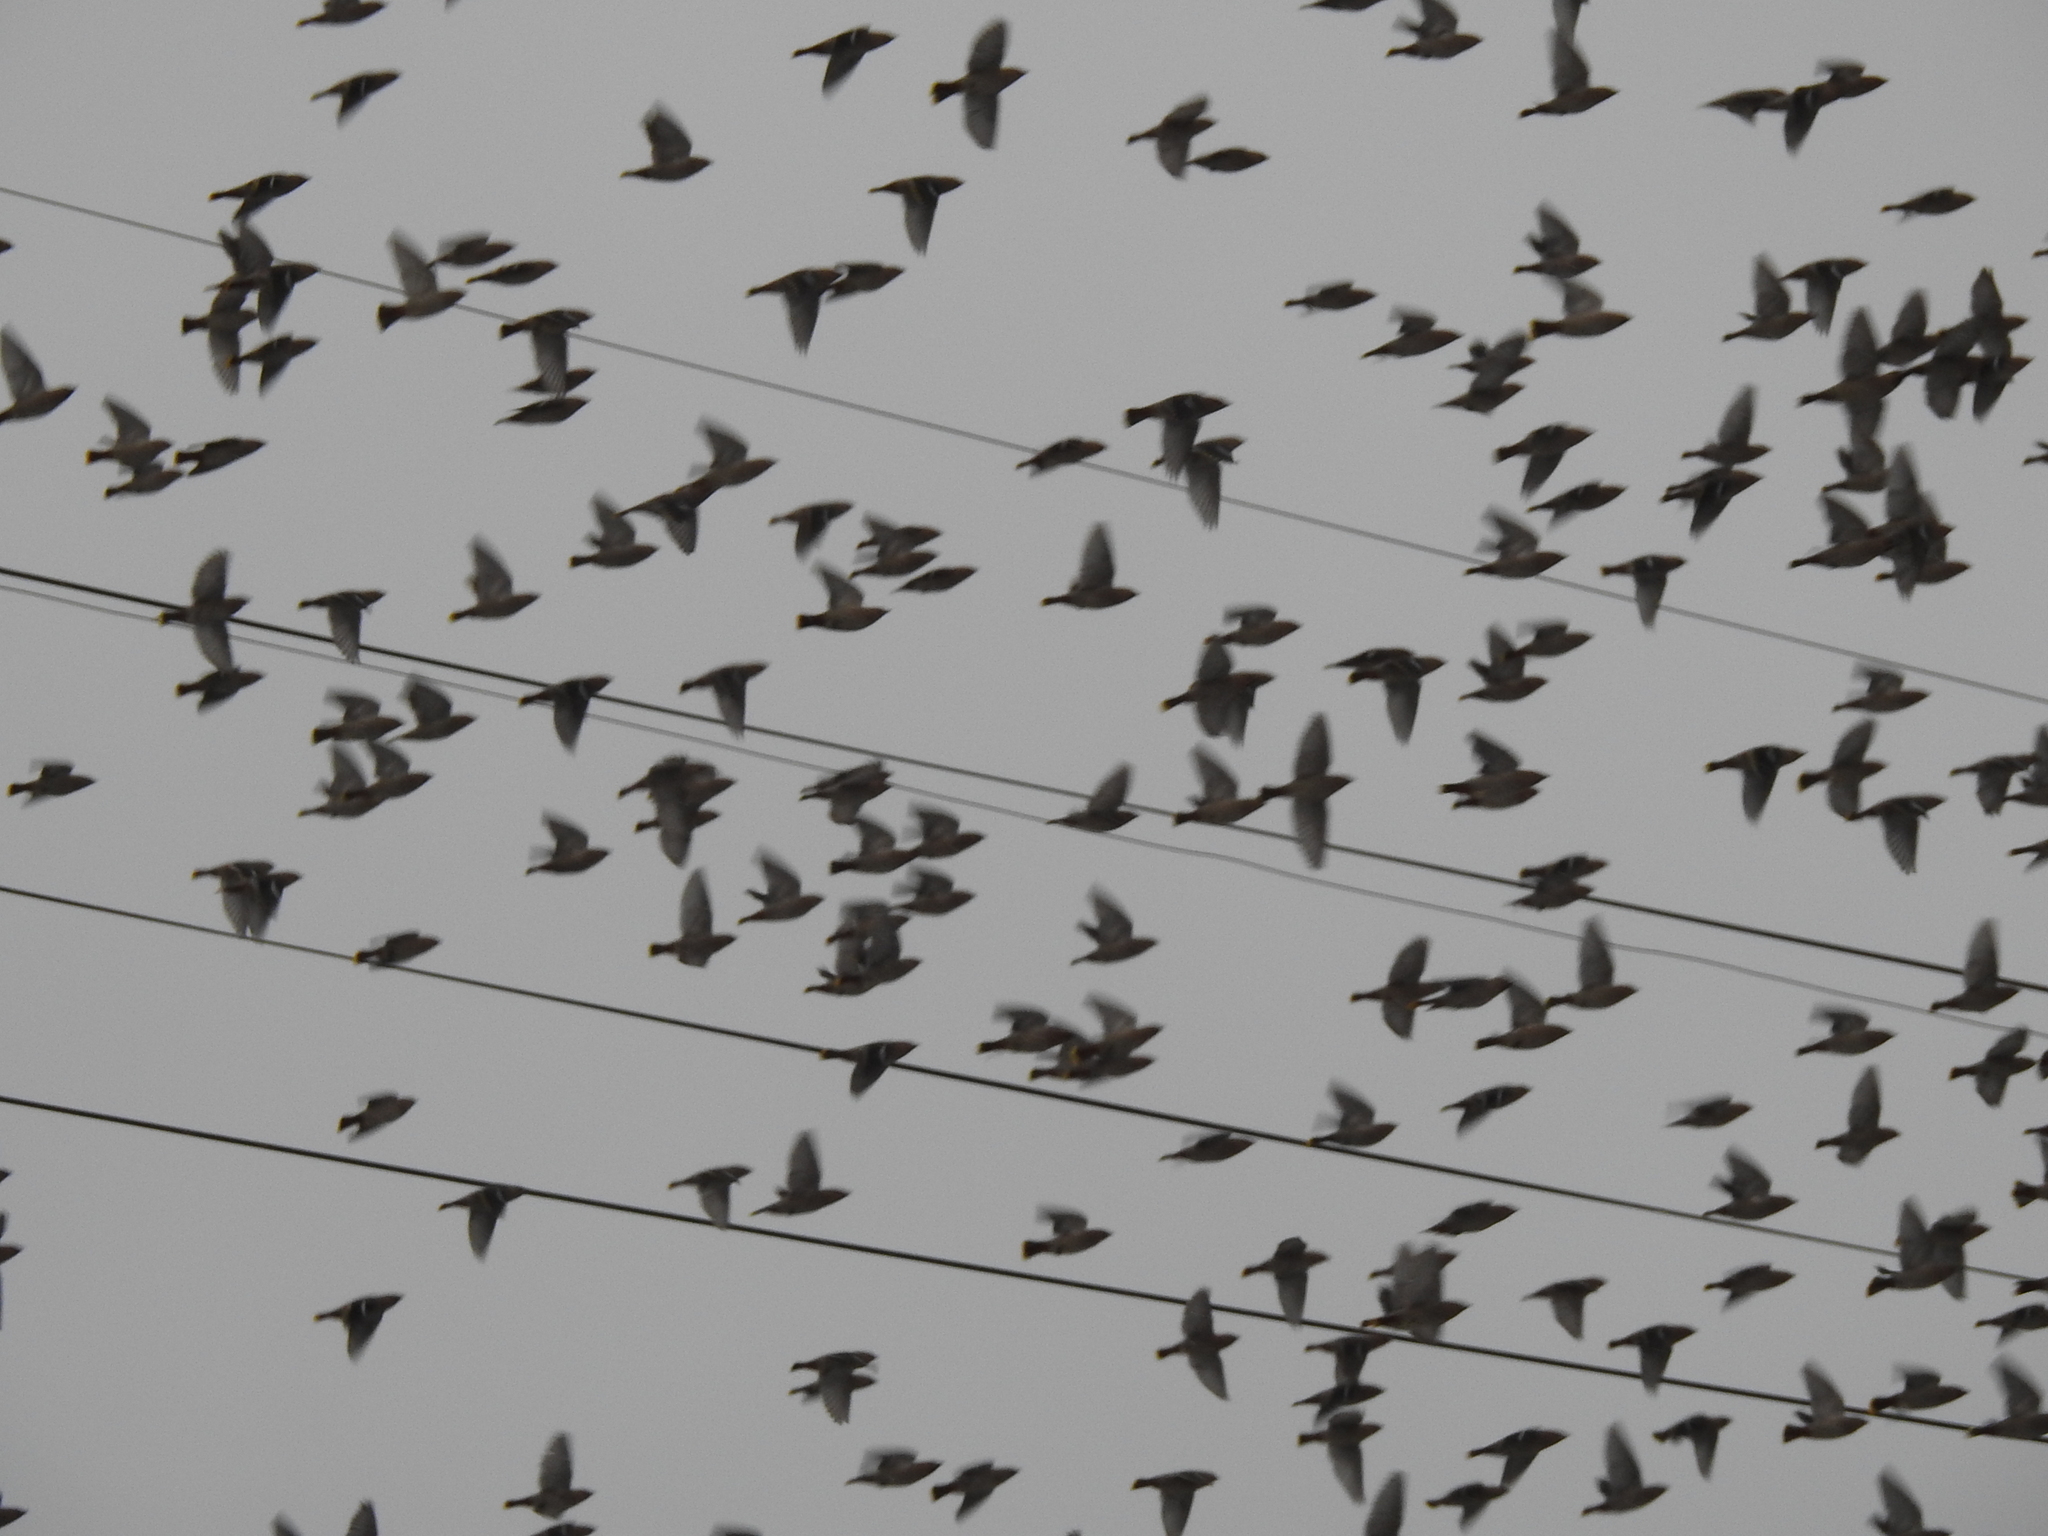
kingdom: Animalia
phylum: Chordata
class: Aves
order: Passeriformes
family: Bombycillidae
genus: Bombycilla
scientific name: Bombycilla garrulus
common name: Bohemian waxwing
